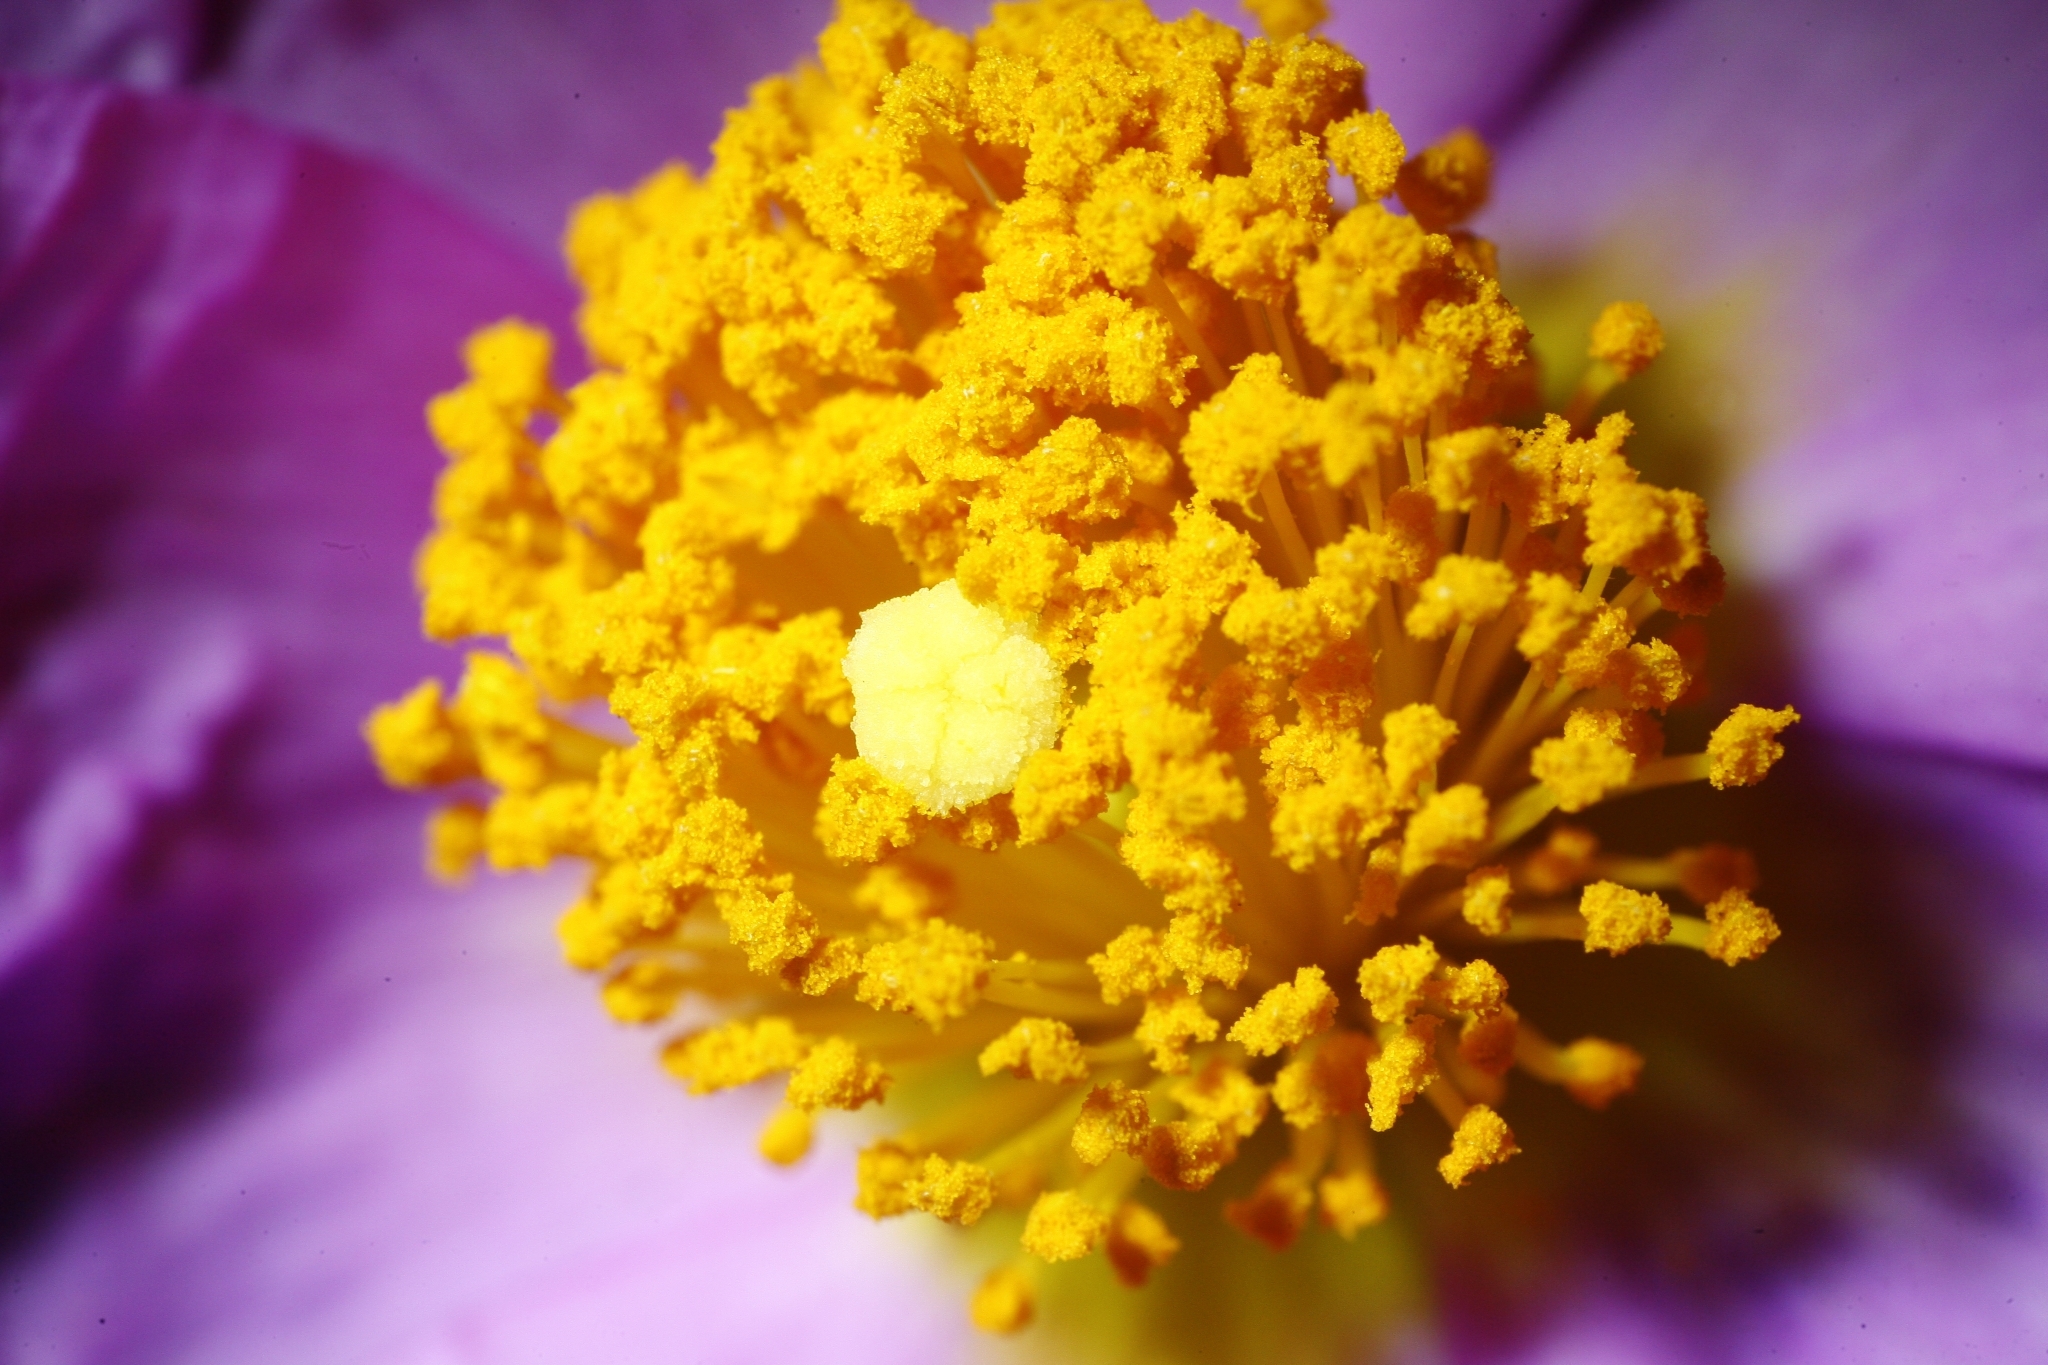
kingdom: Plantae
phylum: Tracheophyta
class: Magnoliopsida
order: Malvales
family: Cistaceae
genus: Cistus
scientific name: Cistus creticus
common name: Cretan rockrose
